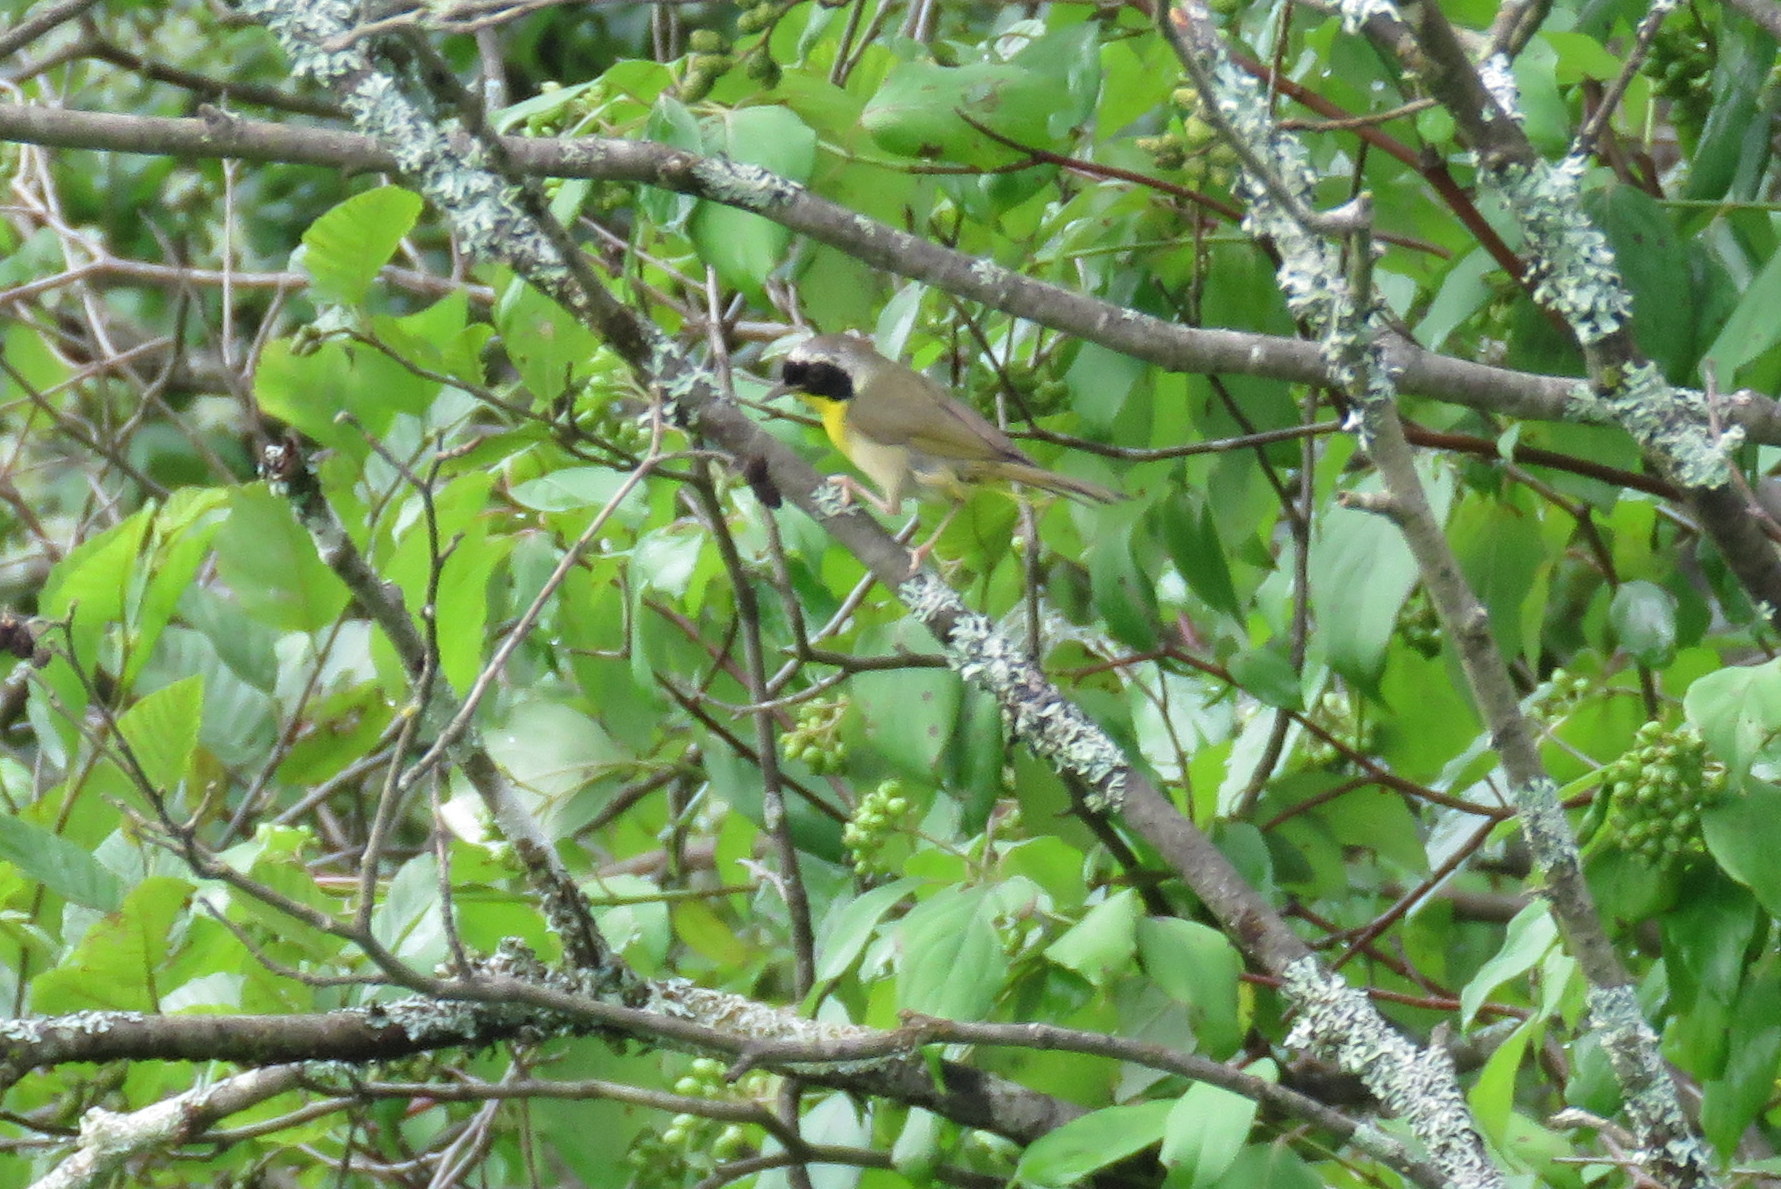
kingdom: Animalia
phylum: Chordata
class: Aves
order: Passeriformes
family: Parulidae
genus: Geothlypis
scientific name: Geothlypis trichas
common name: Common yellowthroat
